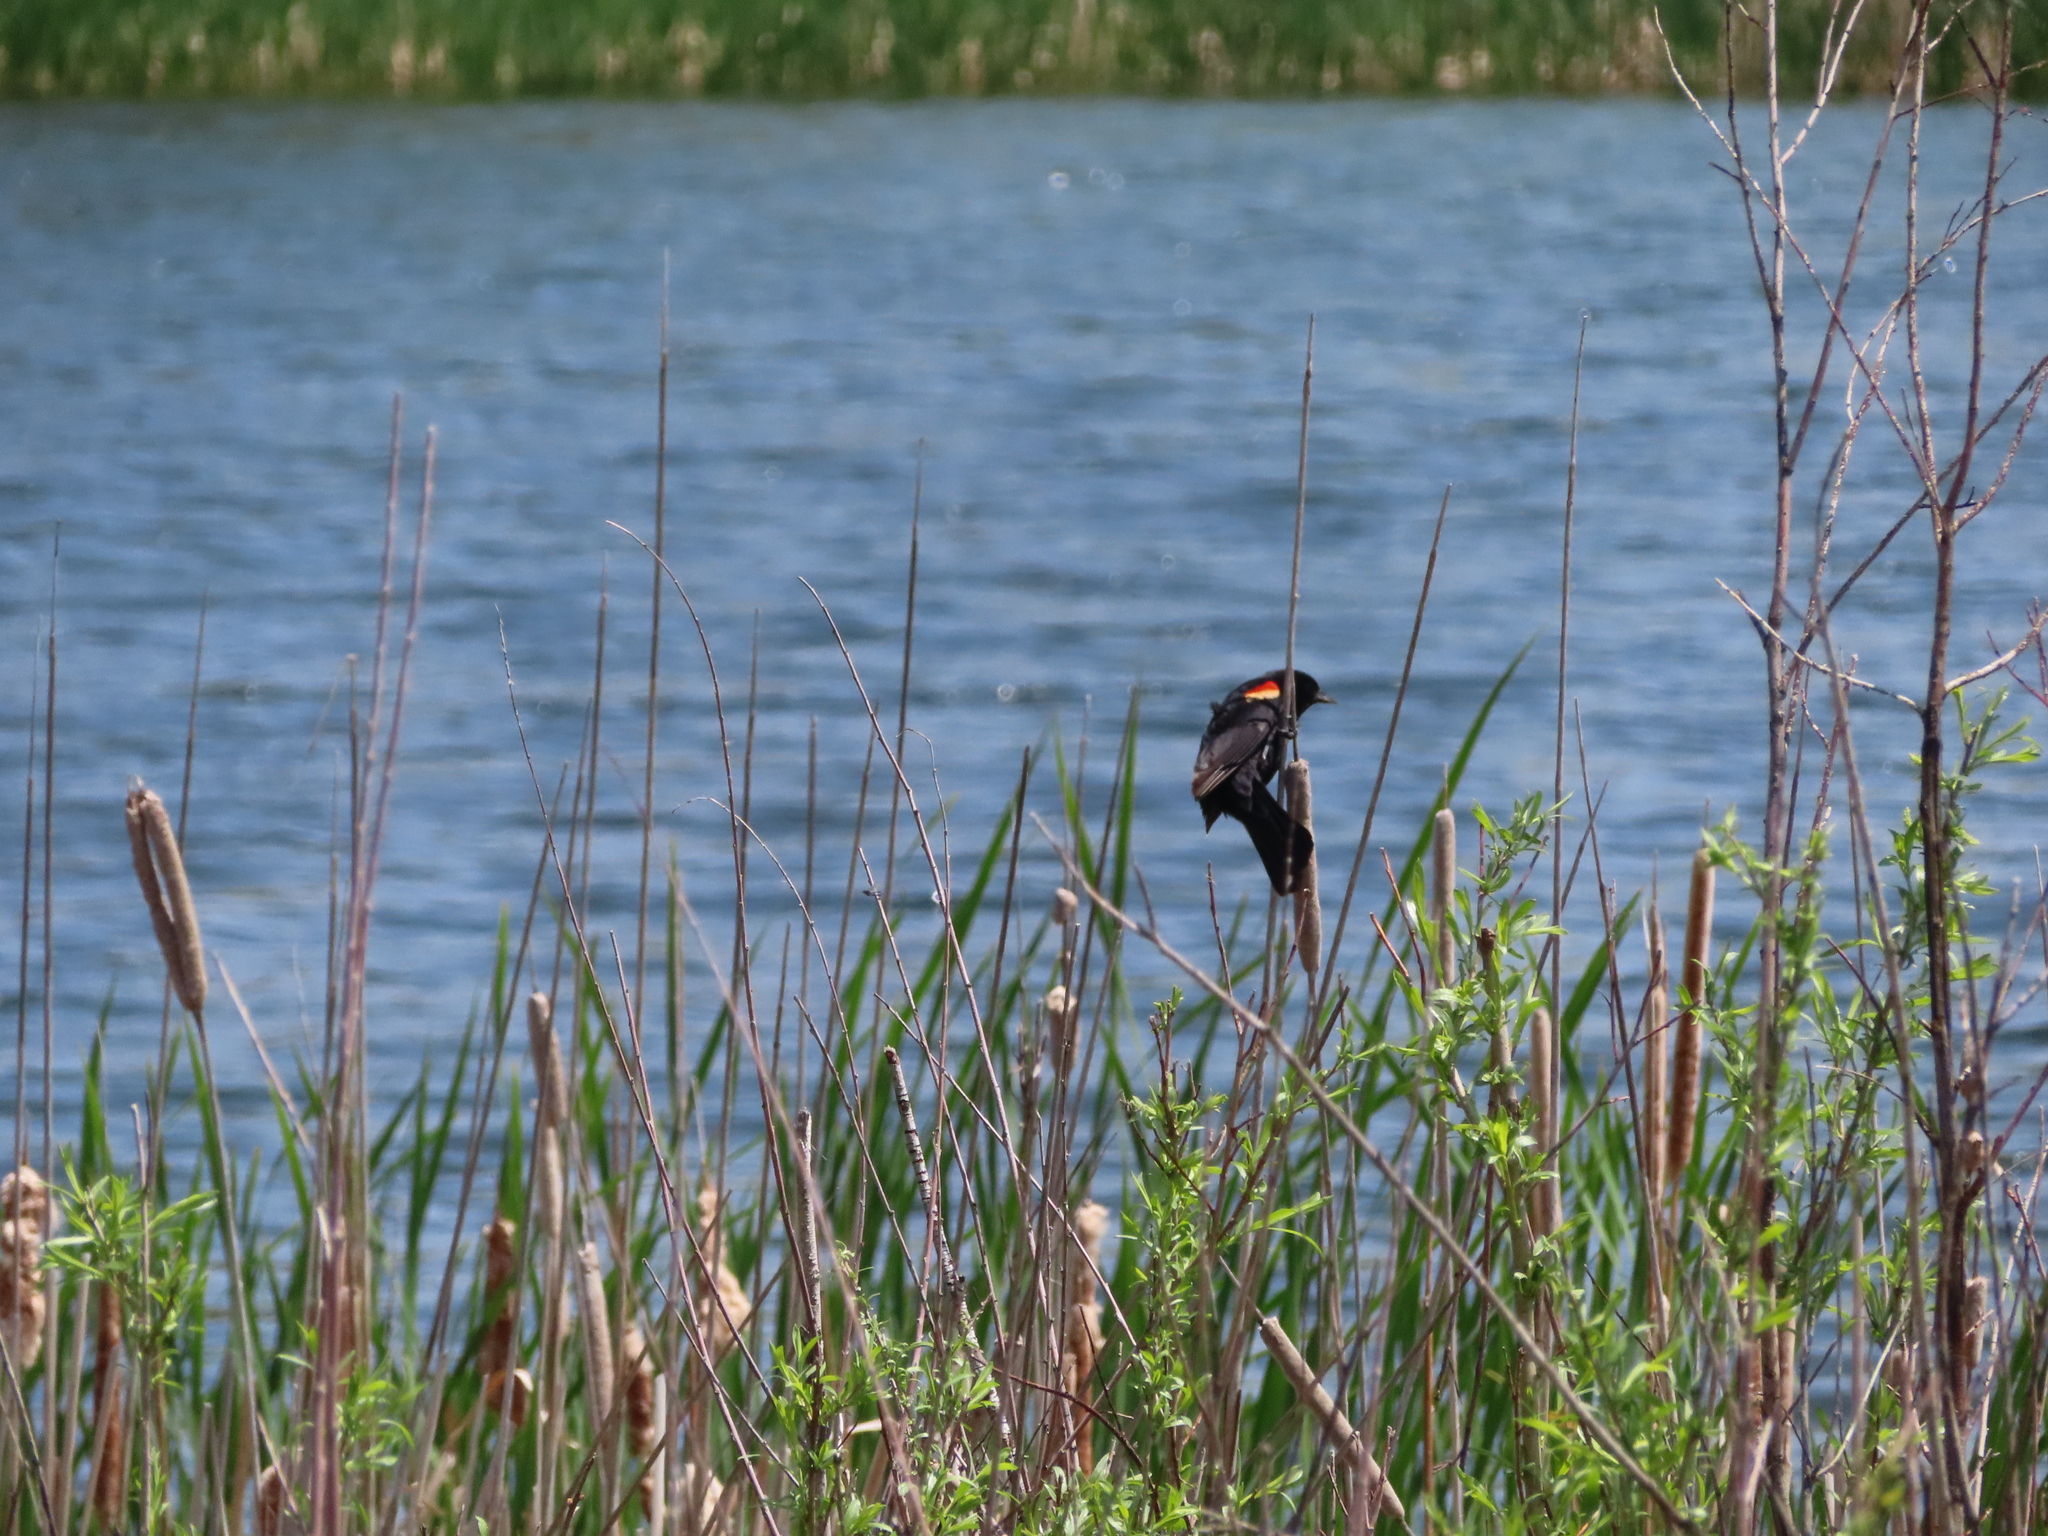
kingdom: Animalia
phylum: Chordata
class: Aves
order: Passeriformes
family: Icteridae
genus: Agelaius
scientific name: Agelaius phoeniceus
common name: Red-winged blackbird
